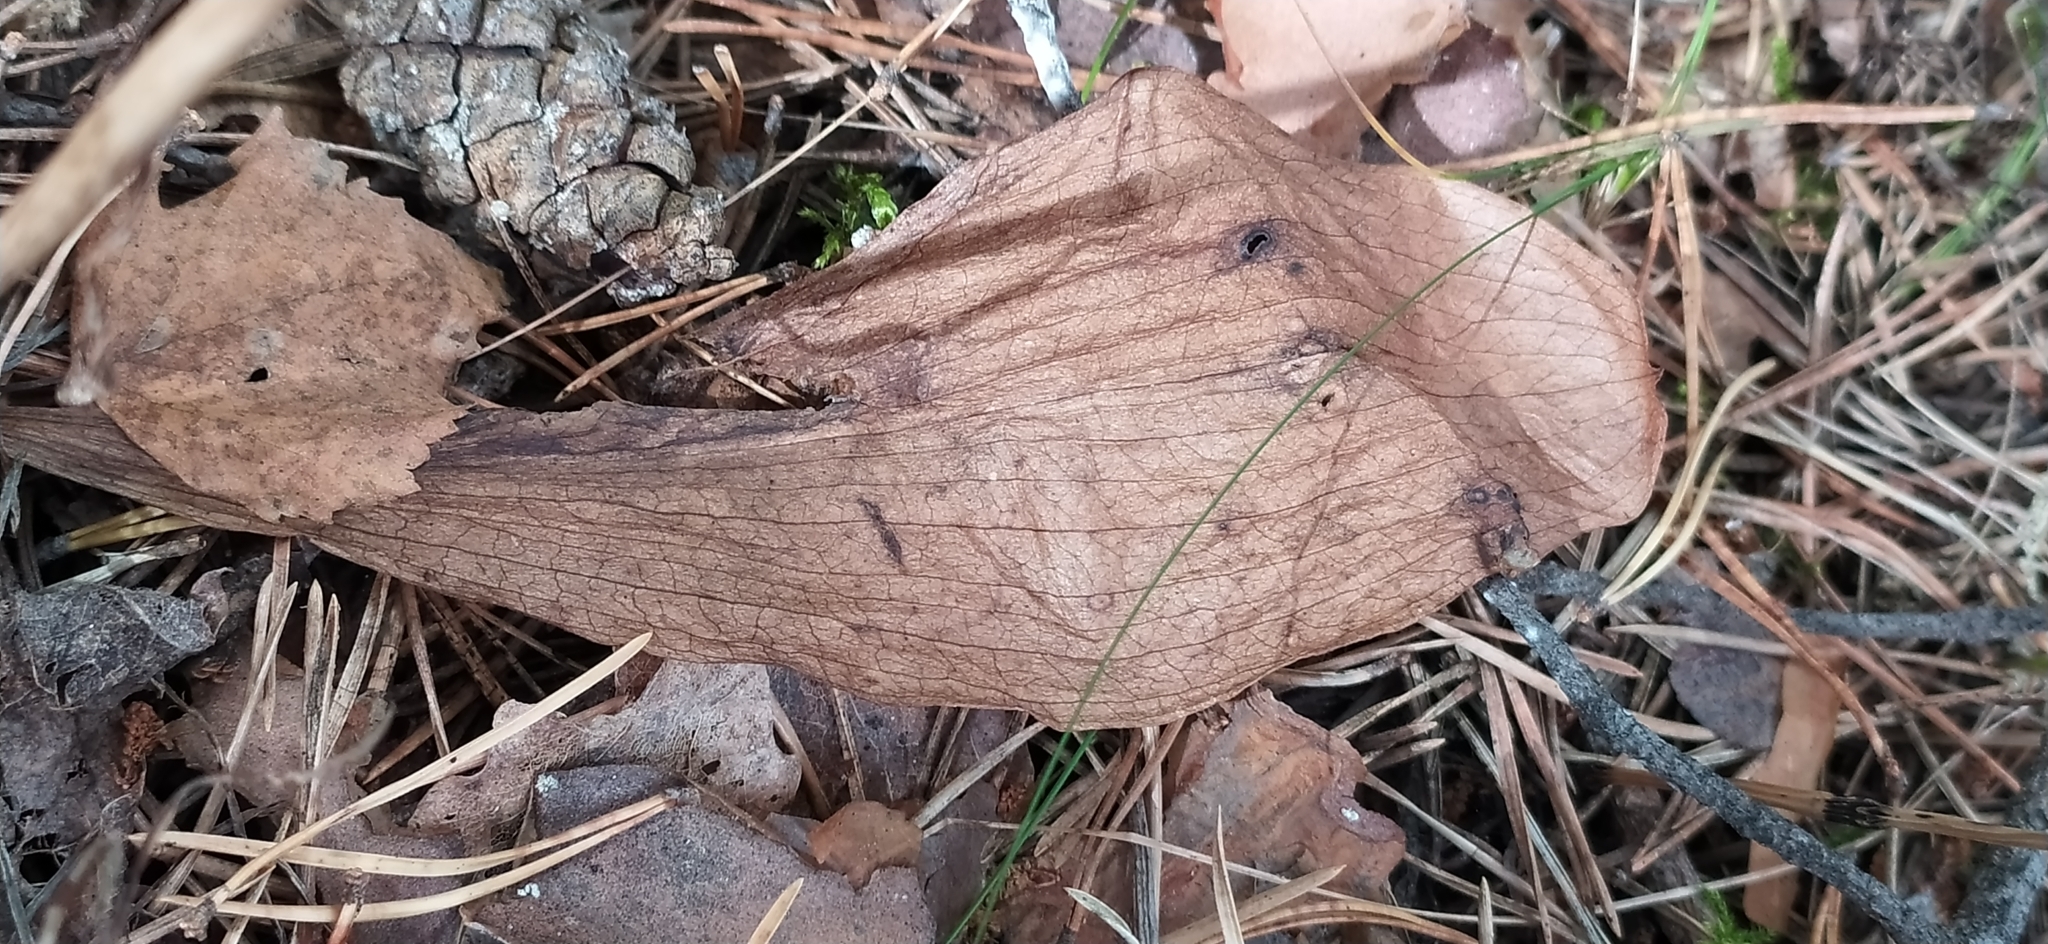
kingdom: Plantae
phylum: Tracheophyta
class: Liliopsida
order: Asparagales
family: Orchidaceae
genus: Platanthera
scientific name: Platanthera bifolia
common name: Lesser butterfly-orchid
